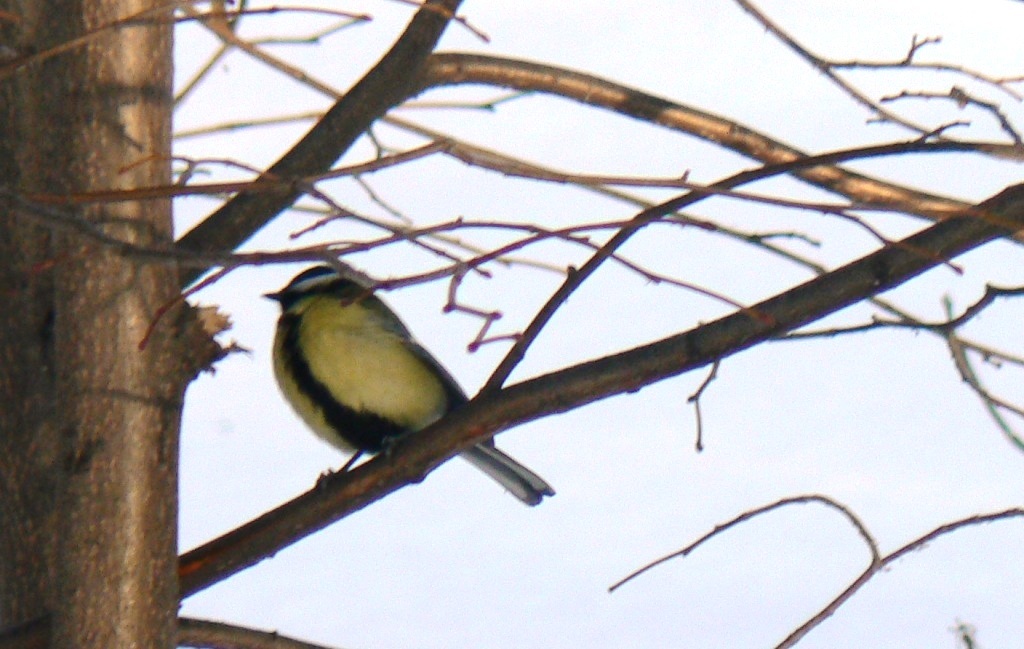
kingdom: Animalia
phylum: Chordata
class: Aves
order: Passeriformes
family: Paridae
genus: Parus
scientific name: Parus major
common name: Great tit
